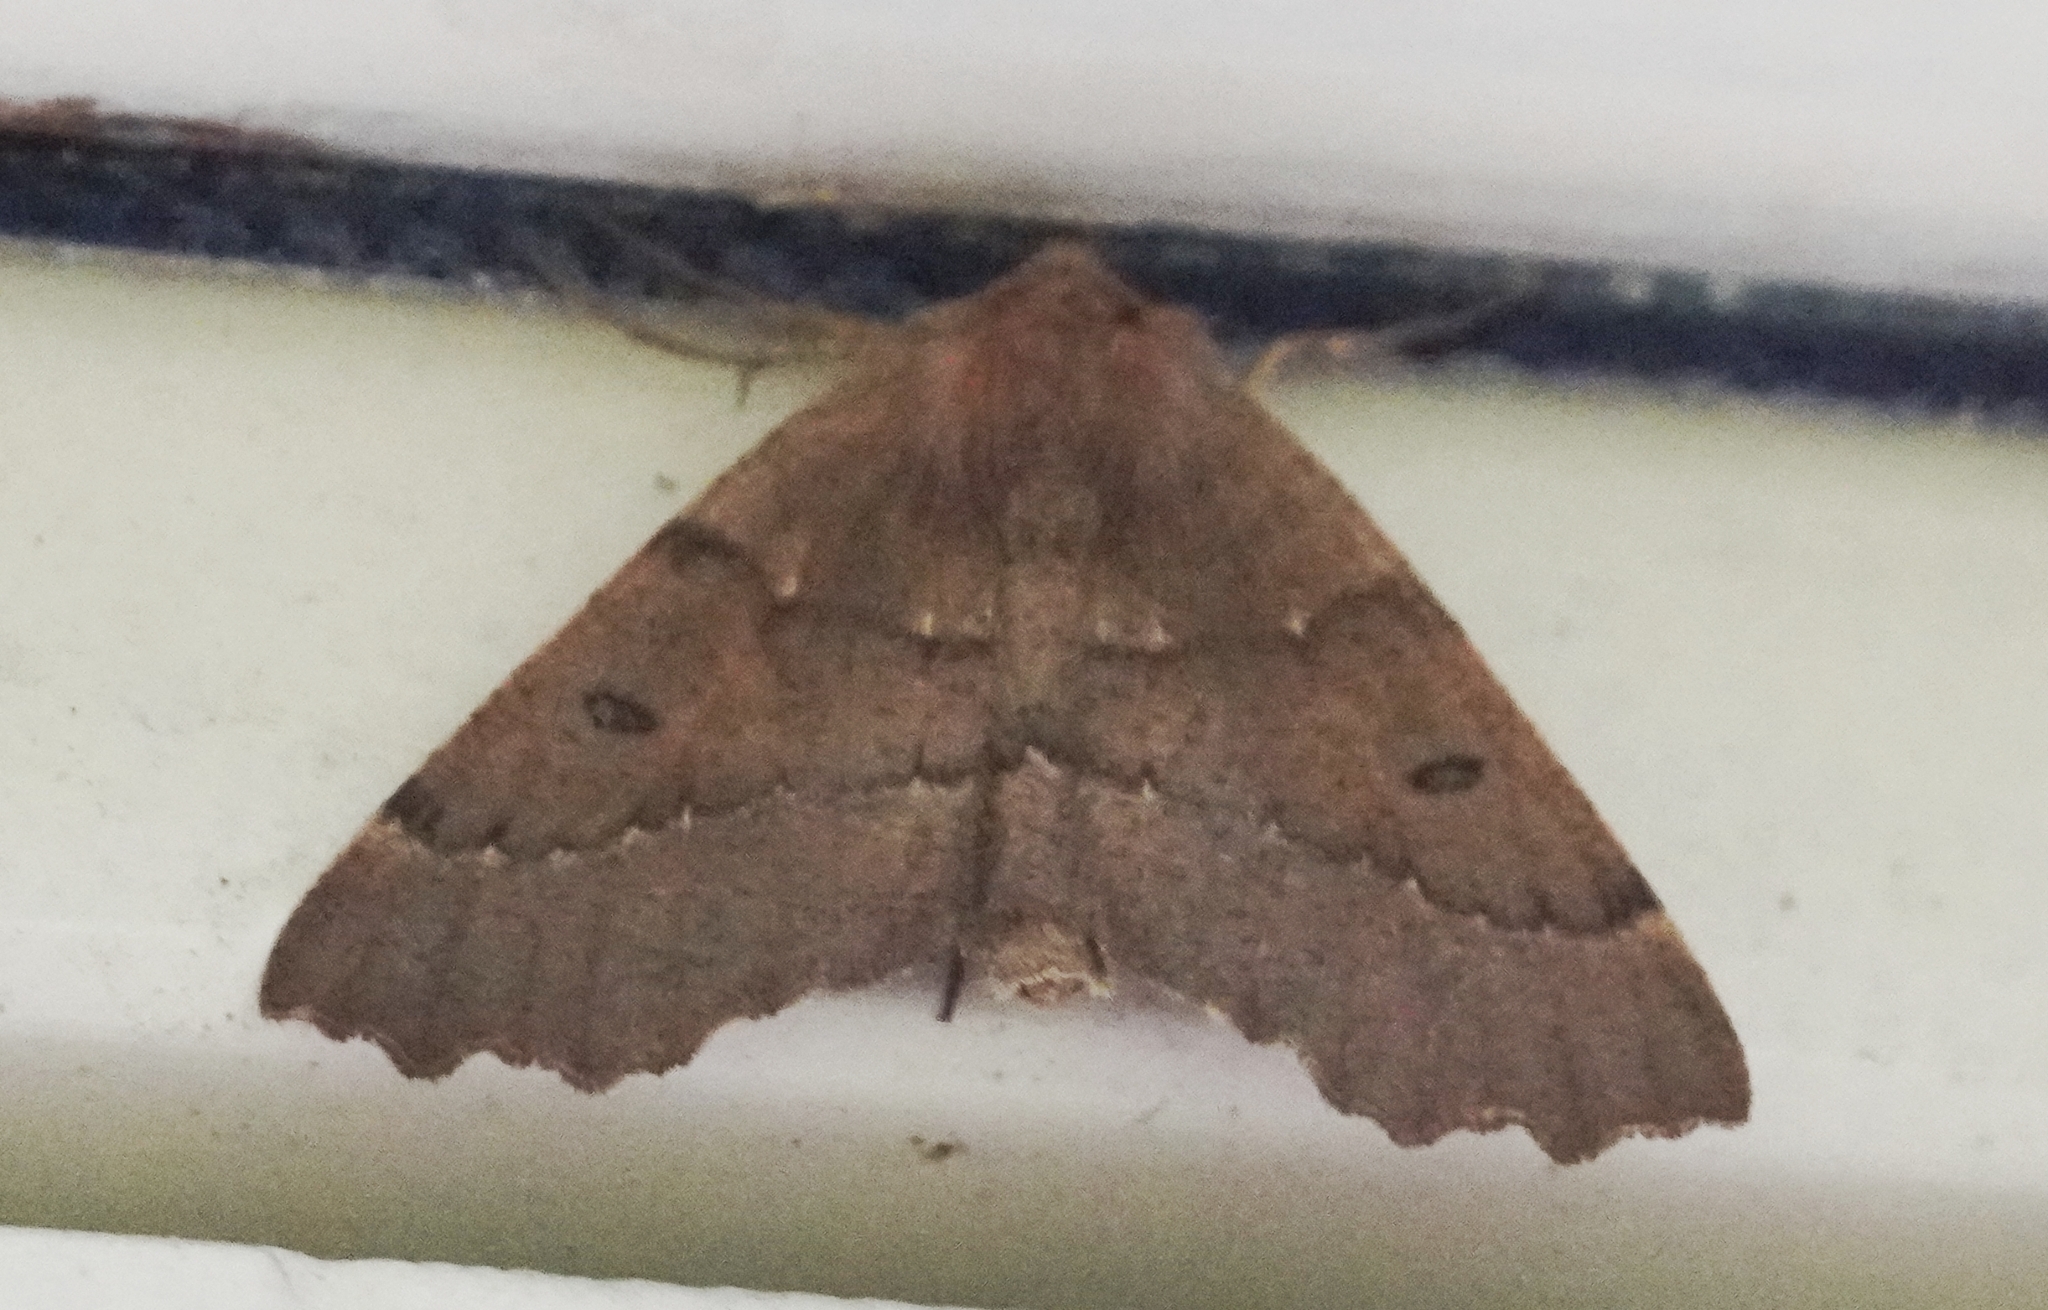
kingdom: Animalia
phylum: Arthropoda
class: Insecta
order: Lepidoptera
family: Geometridae
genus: Odontopera
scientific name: Odontopera bidentata
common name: Scalloped hazel
